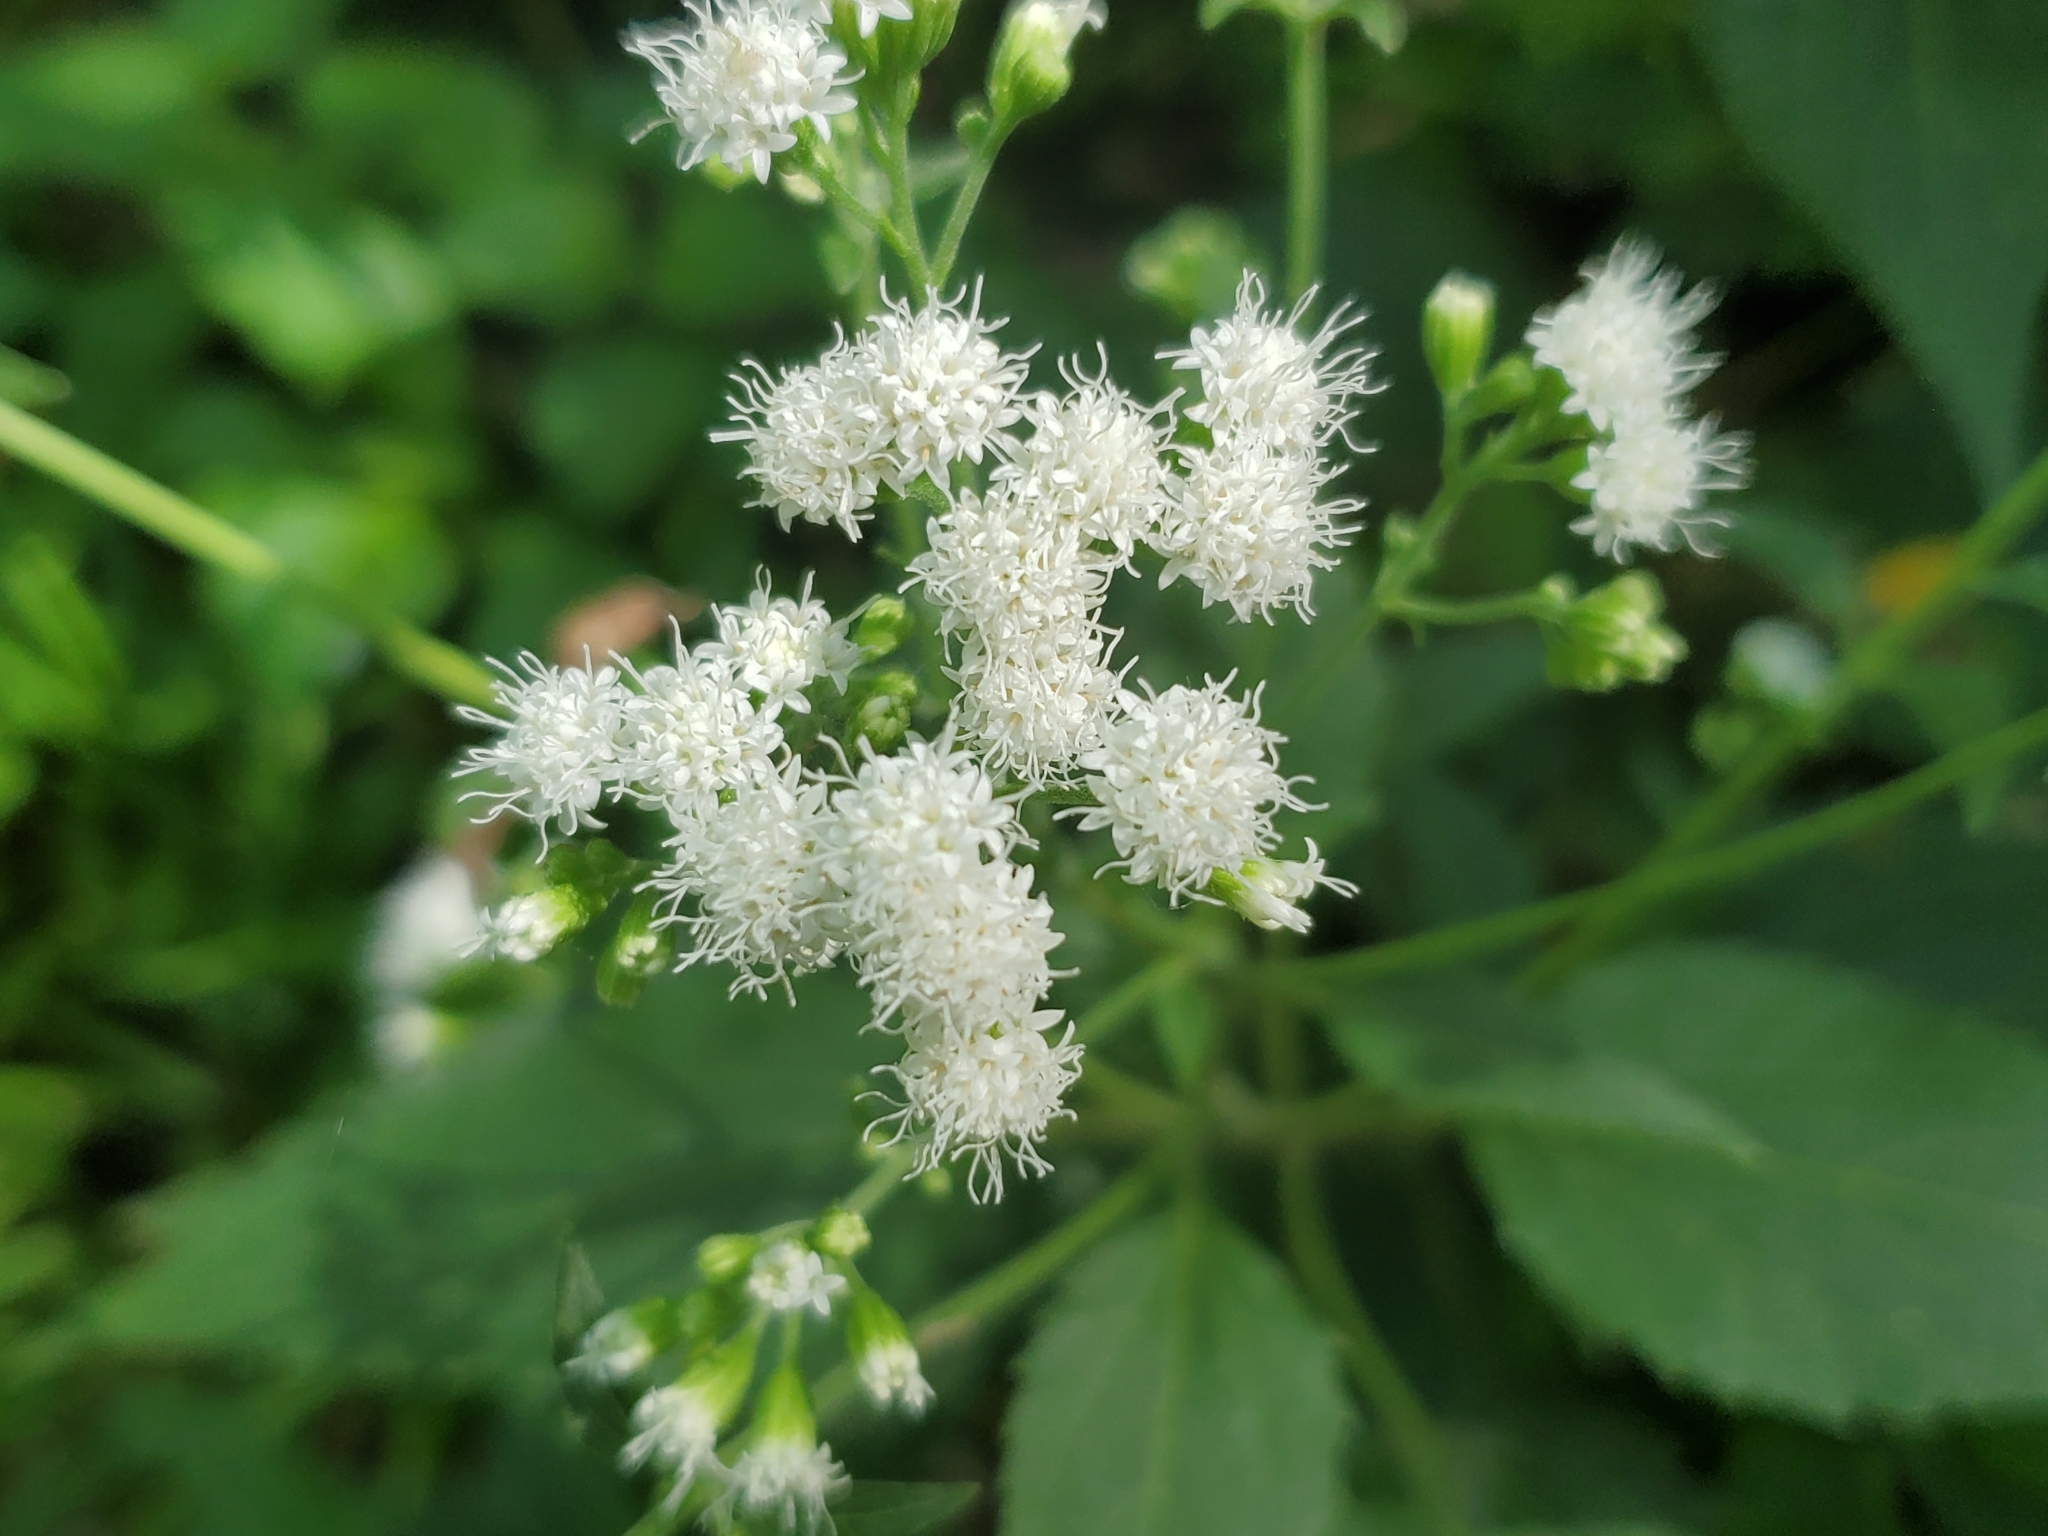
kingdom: Plantae
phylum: Tracheophyta
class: Magnoliopsida
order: Asterales
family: Asteraceae
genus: Ageratina
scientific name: Ageratina altissima
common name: White snakeroot
